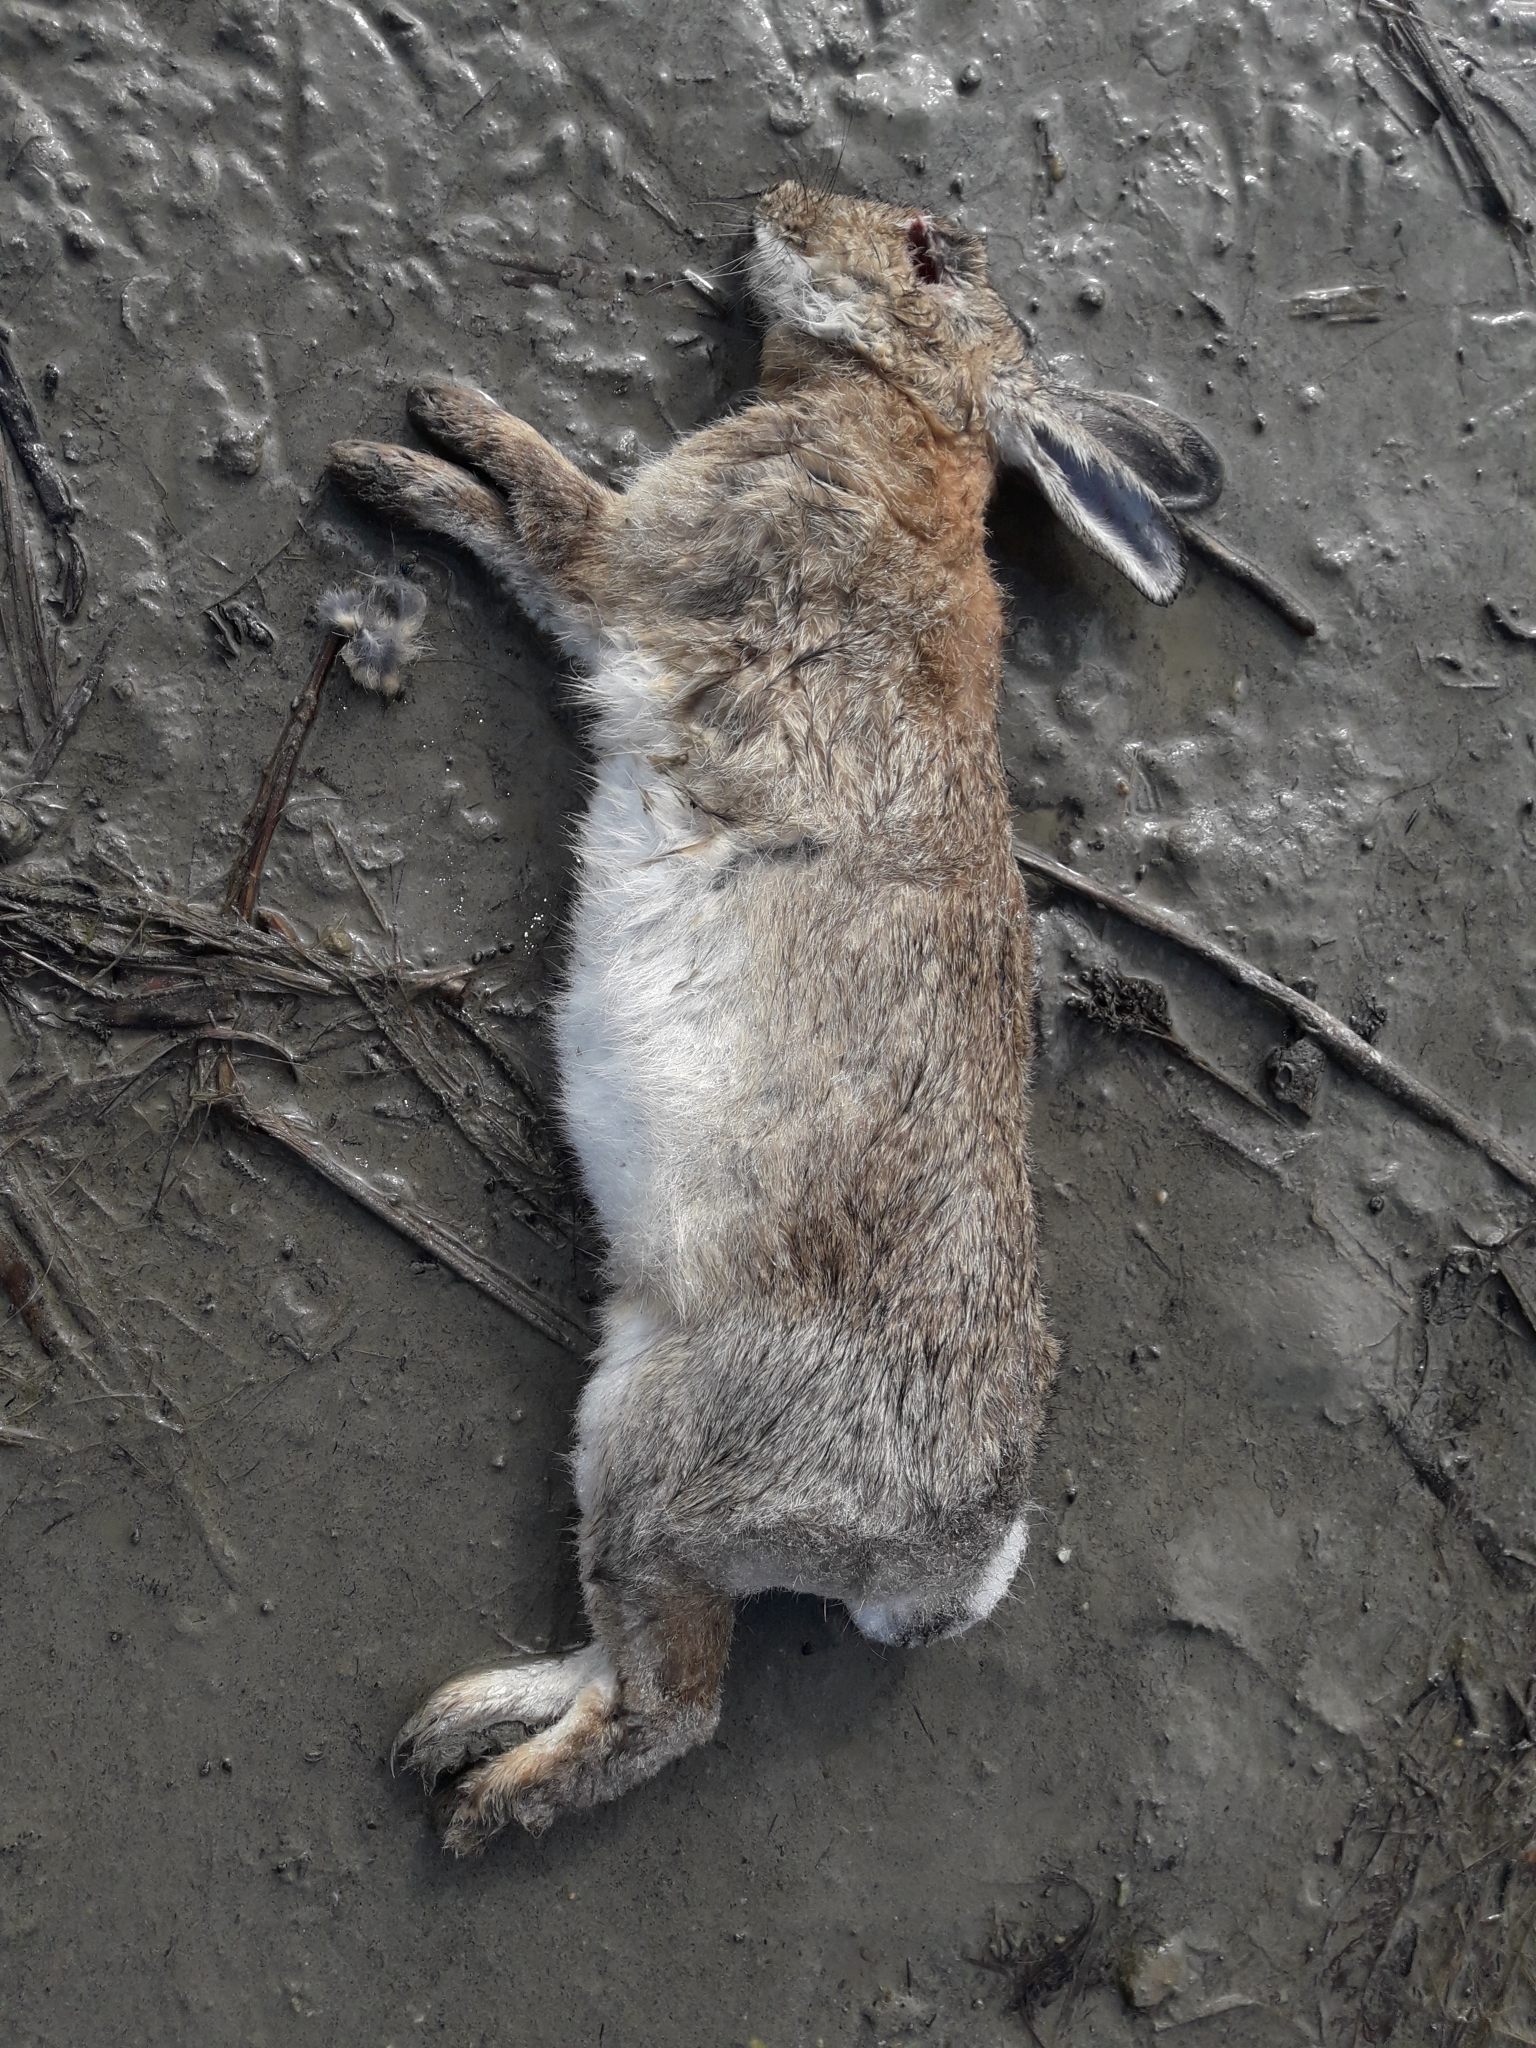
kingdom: Animalia
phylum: Chordata
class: Mammalia
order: Lagomorpha
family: Leporidae
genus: Oryctolagus
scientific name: Oryctolagus cuniculus
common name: European rabbit
